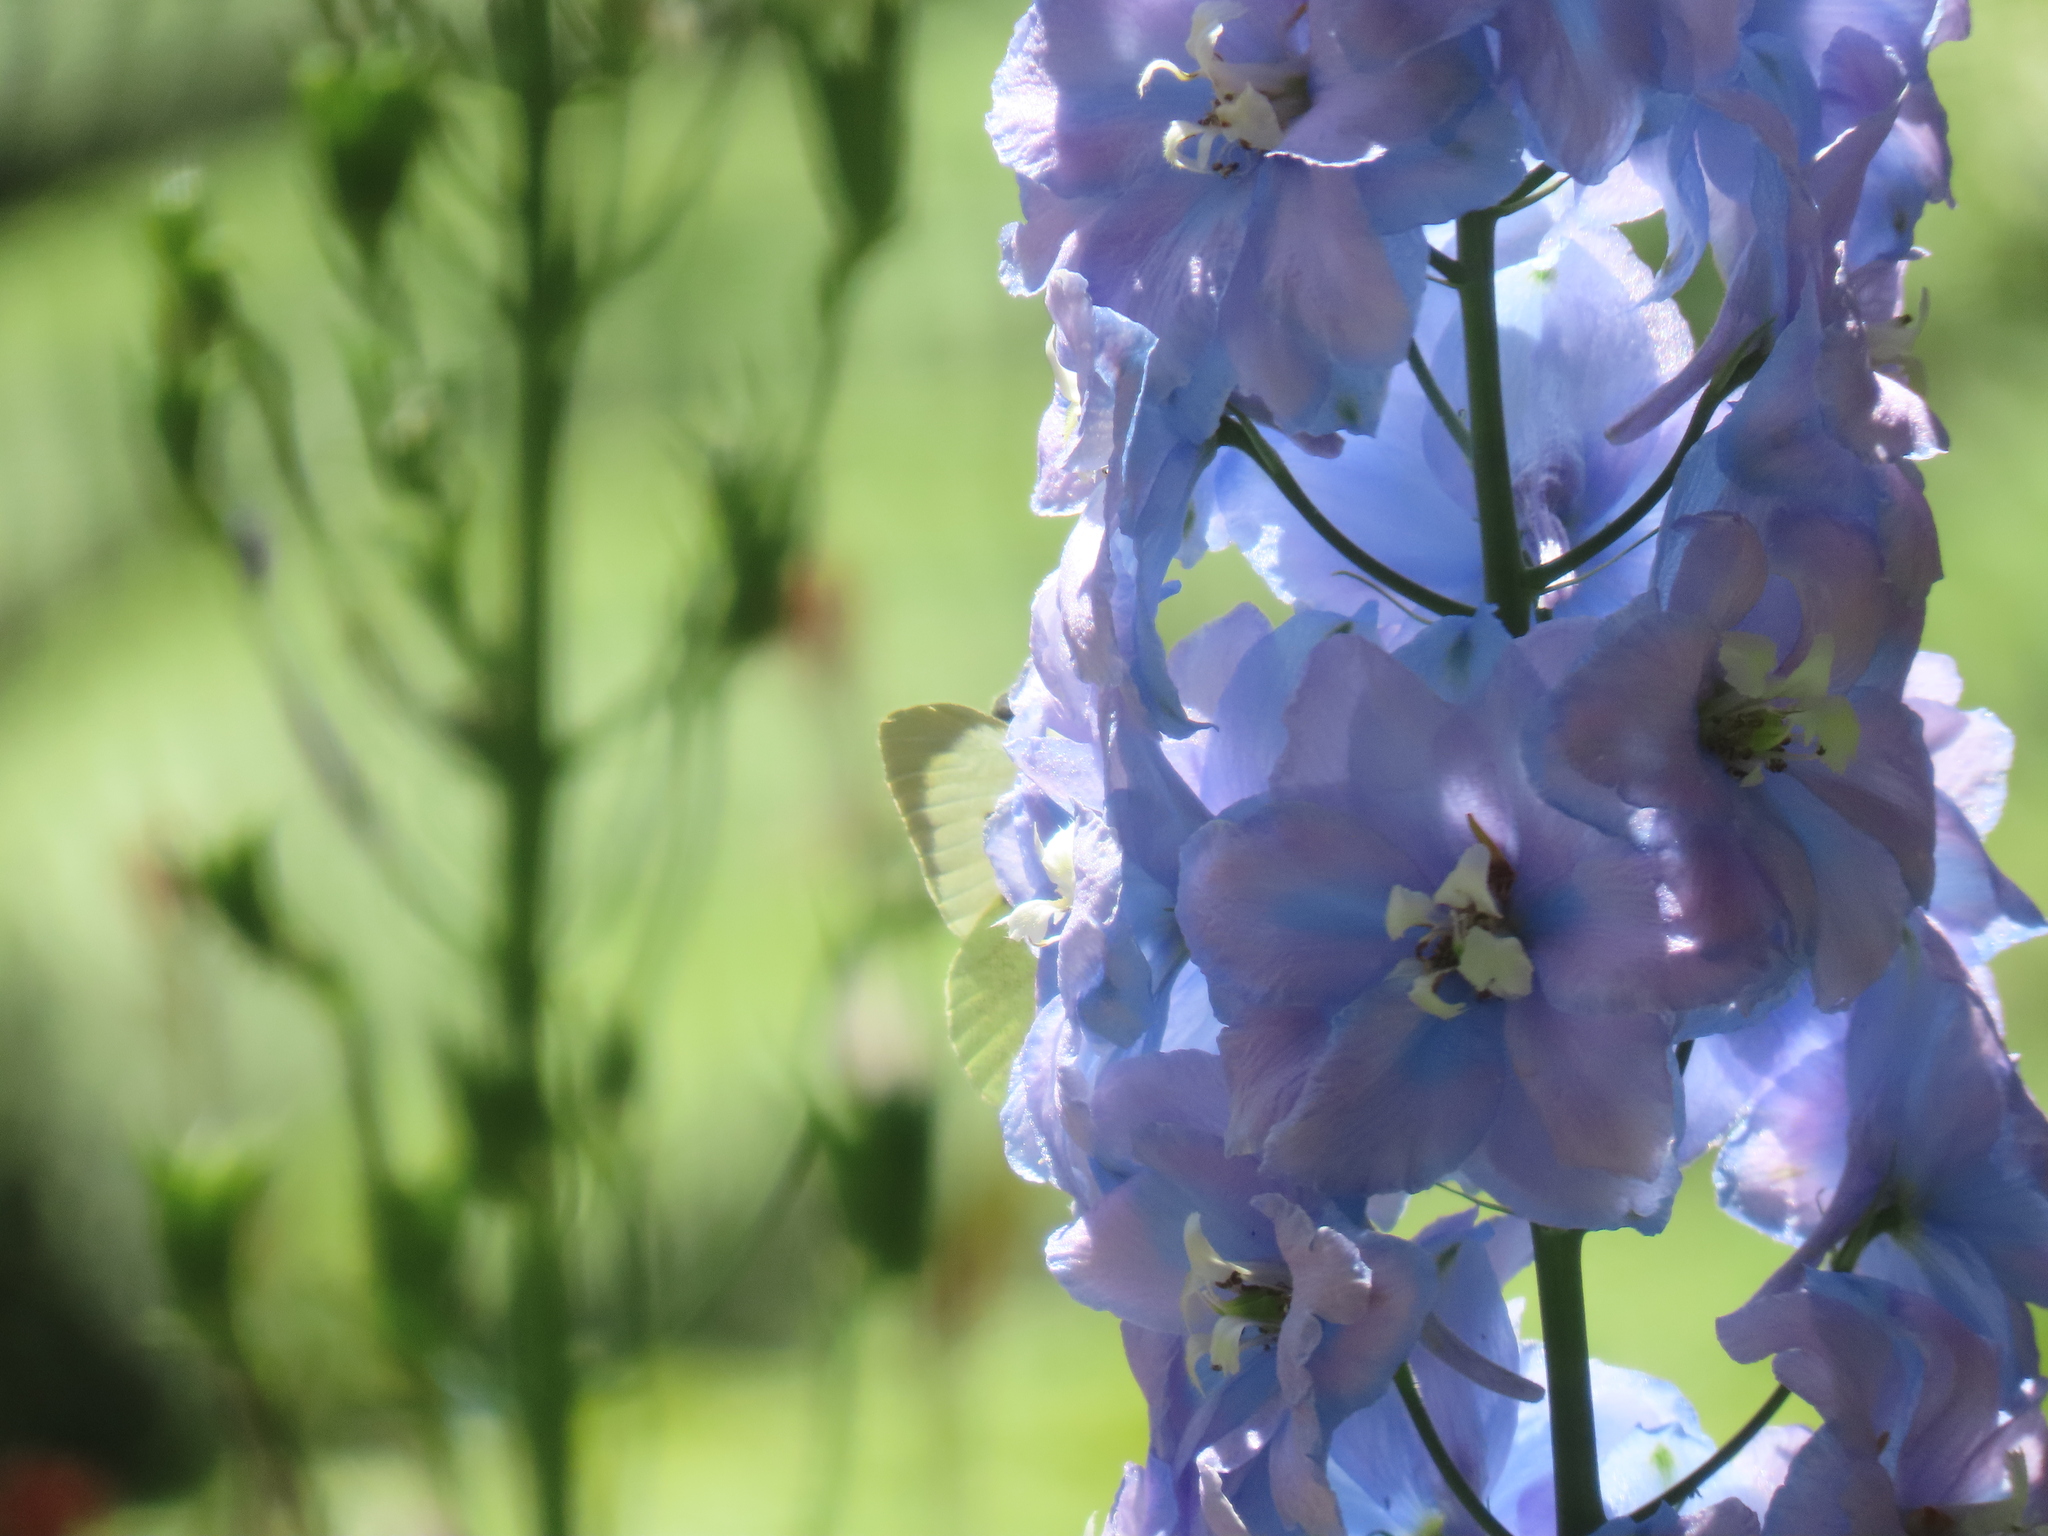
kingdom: Animalia
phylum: Arthropoda
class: Insecta
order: Lepidoptera
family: Pieridae
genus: Pieris
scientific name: Pieris brassicae
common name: Large white
